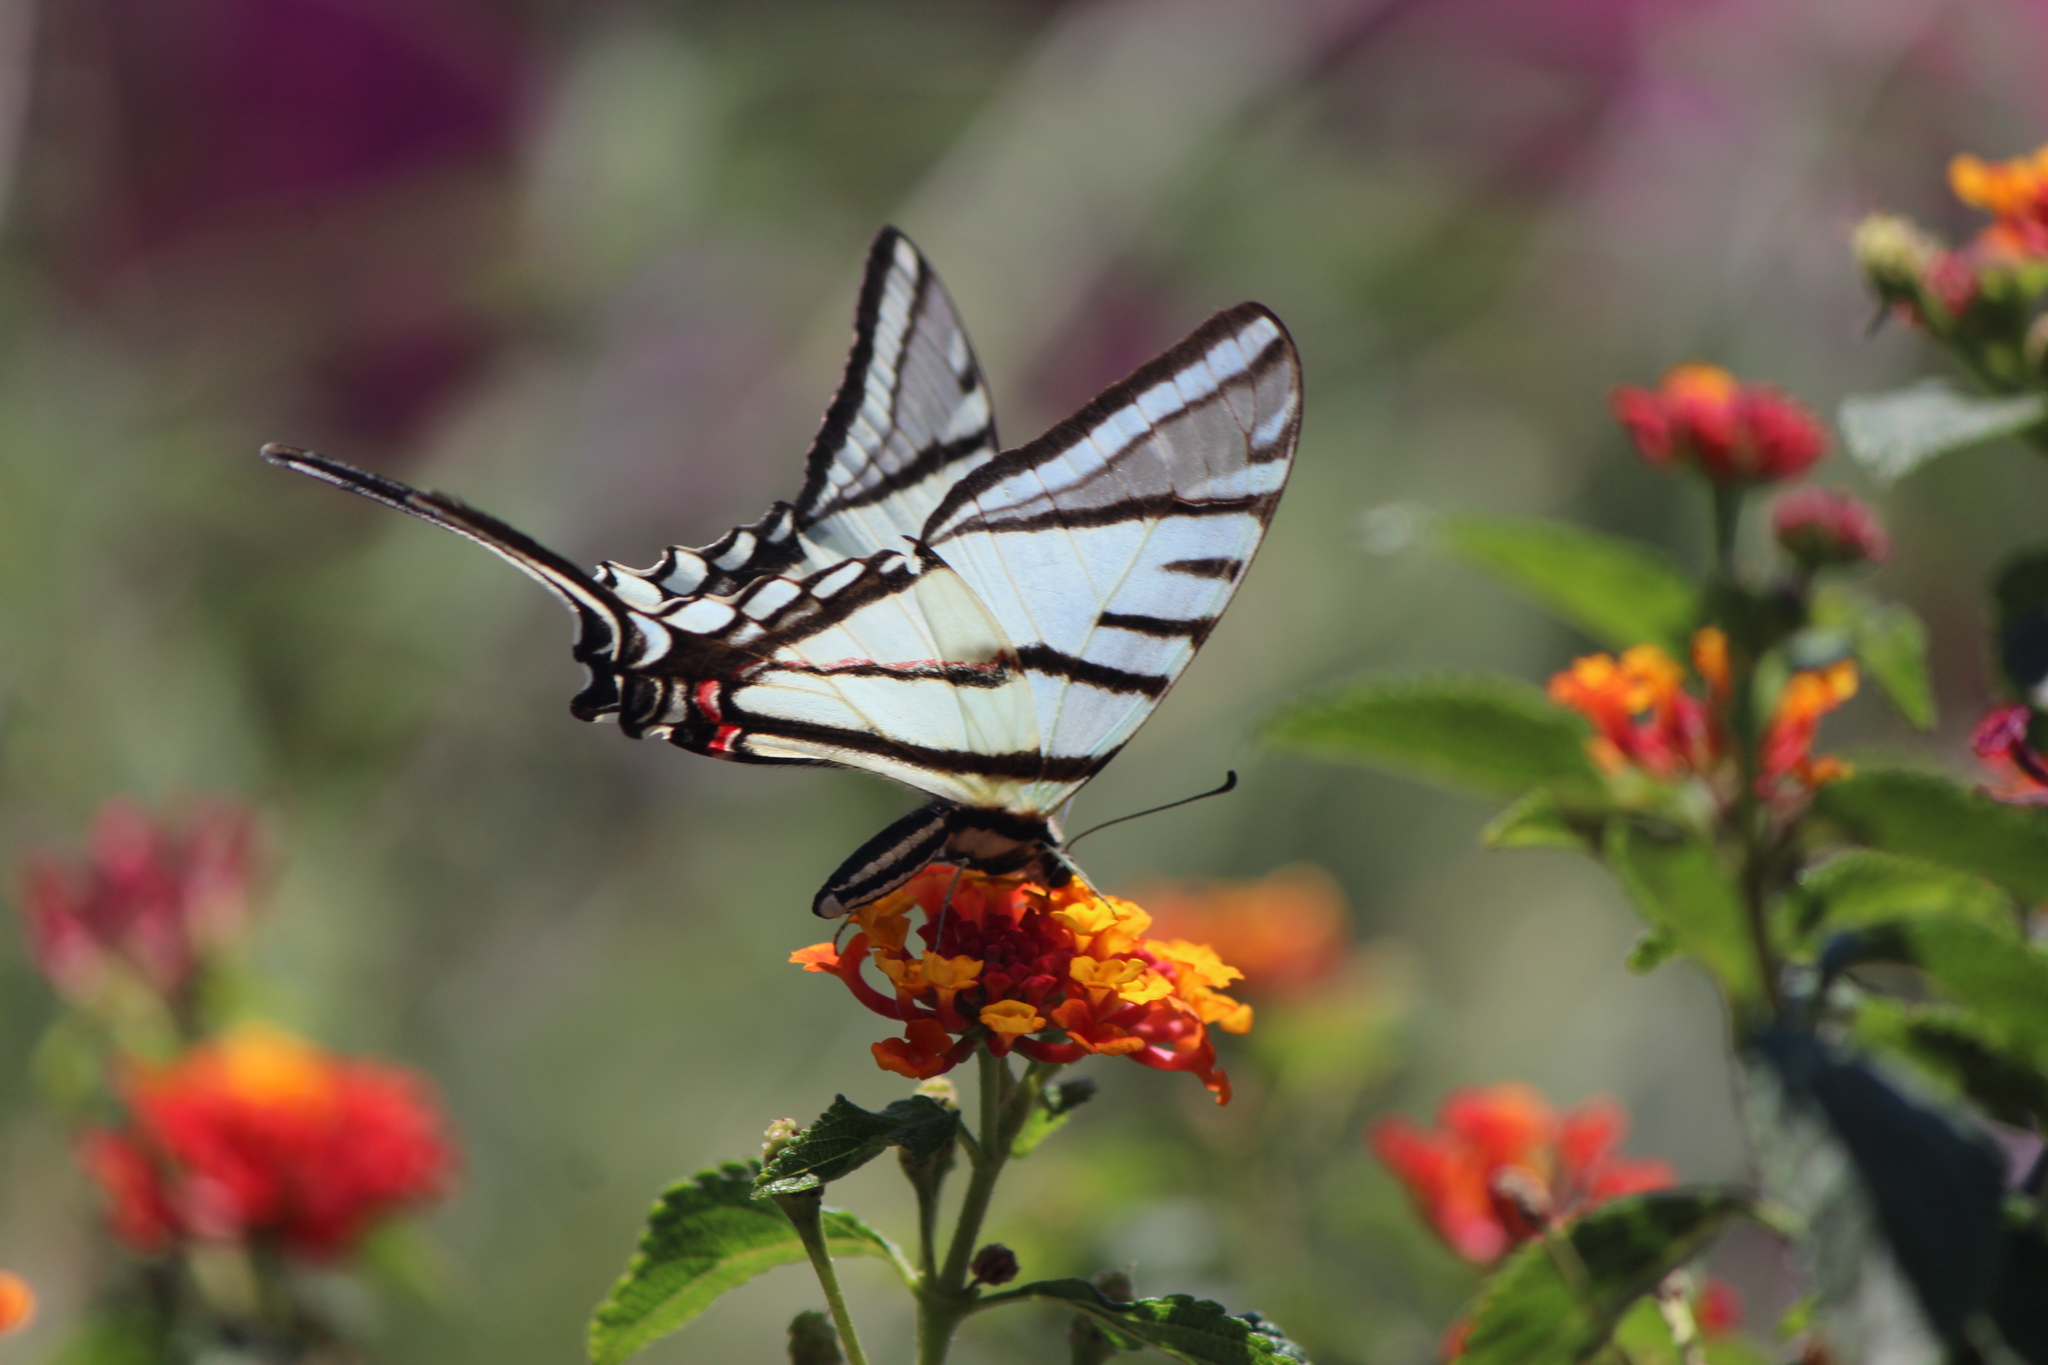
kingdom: Animalia
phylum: Arthropoda
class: Insecta
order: Lepidoptera
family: Papilionidae
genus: Protographium
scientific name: Protographium epidaus
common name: Mexican kite swallowtail
